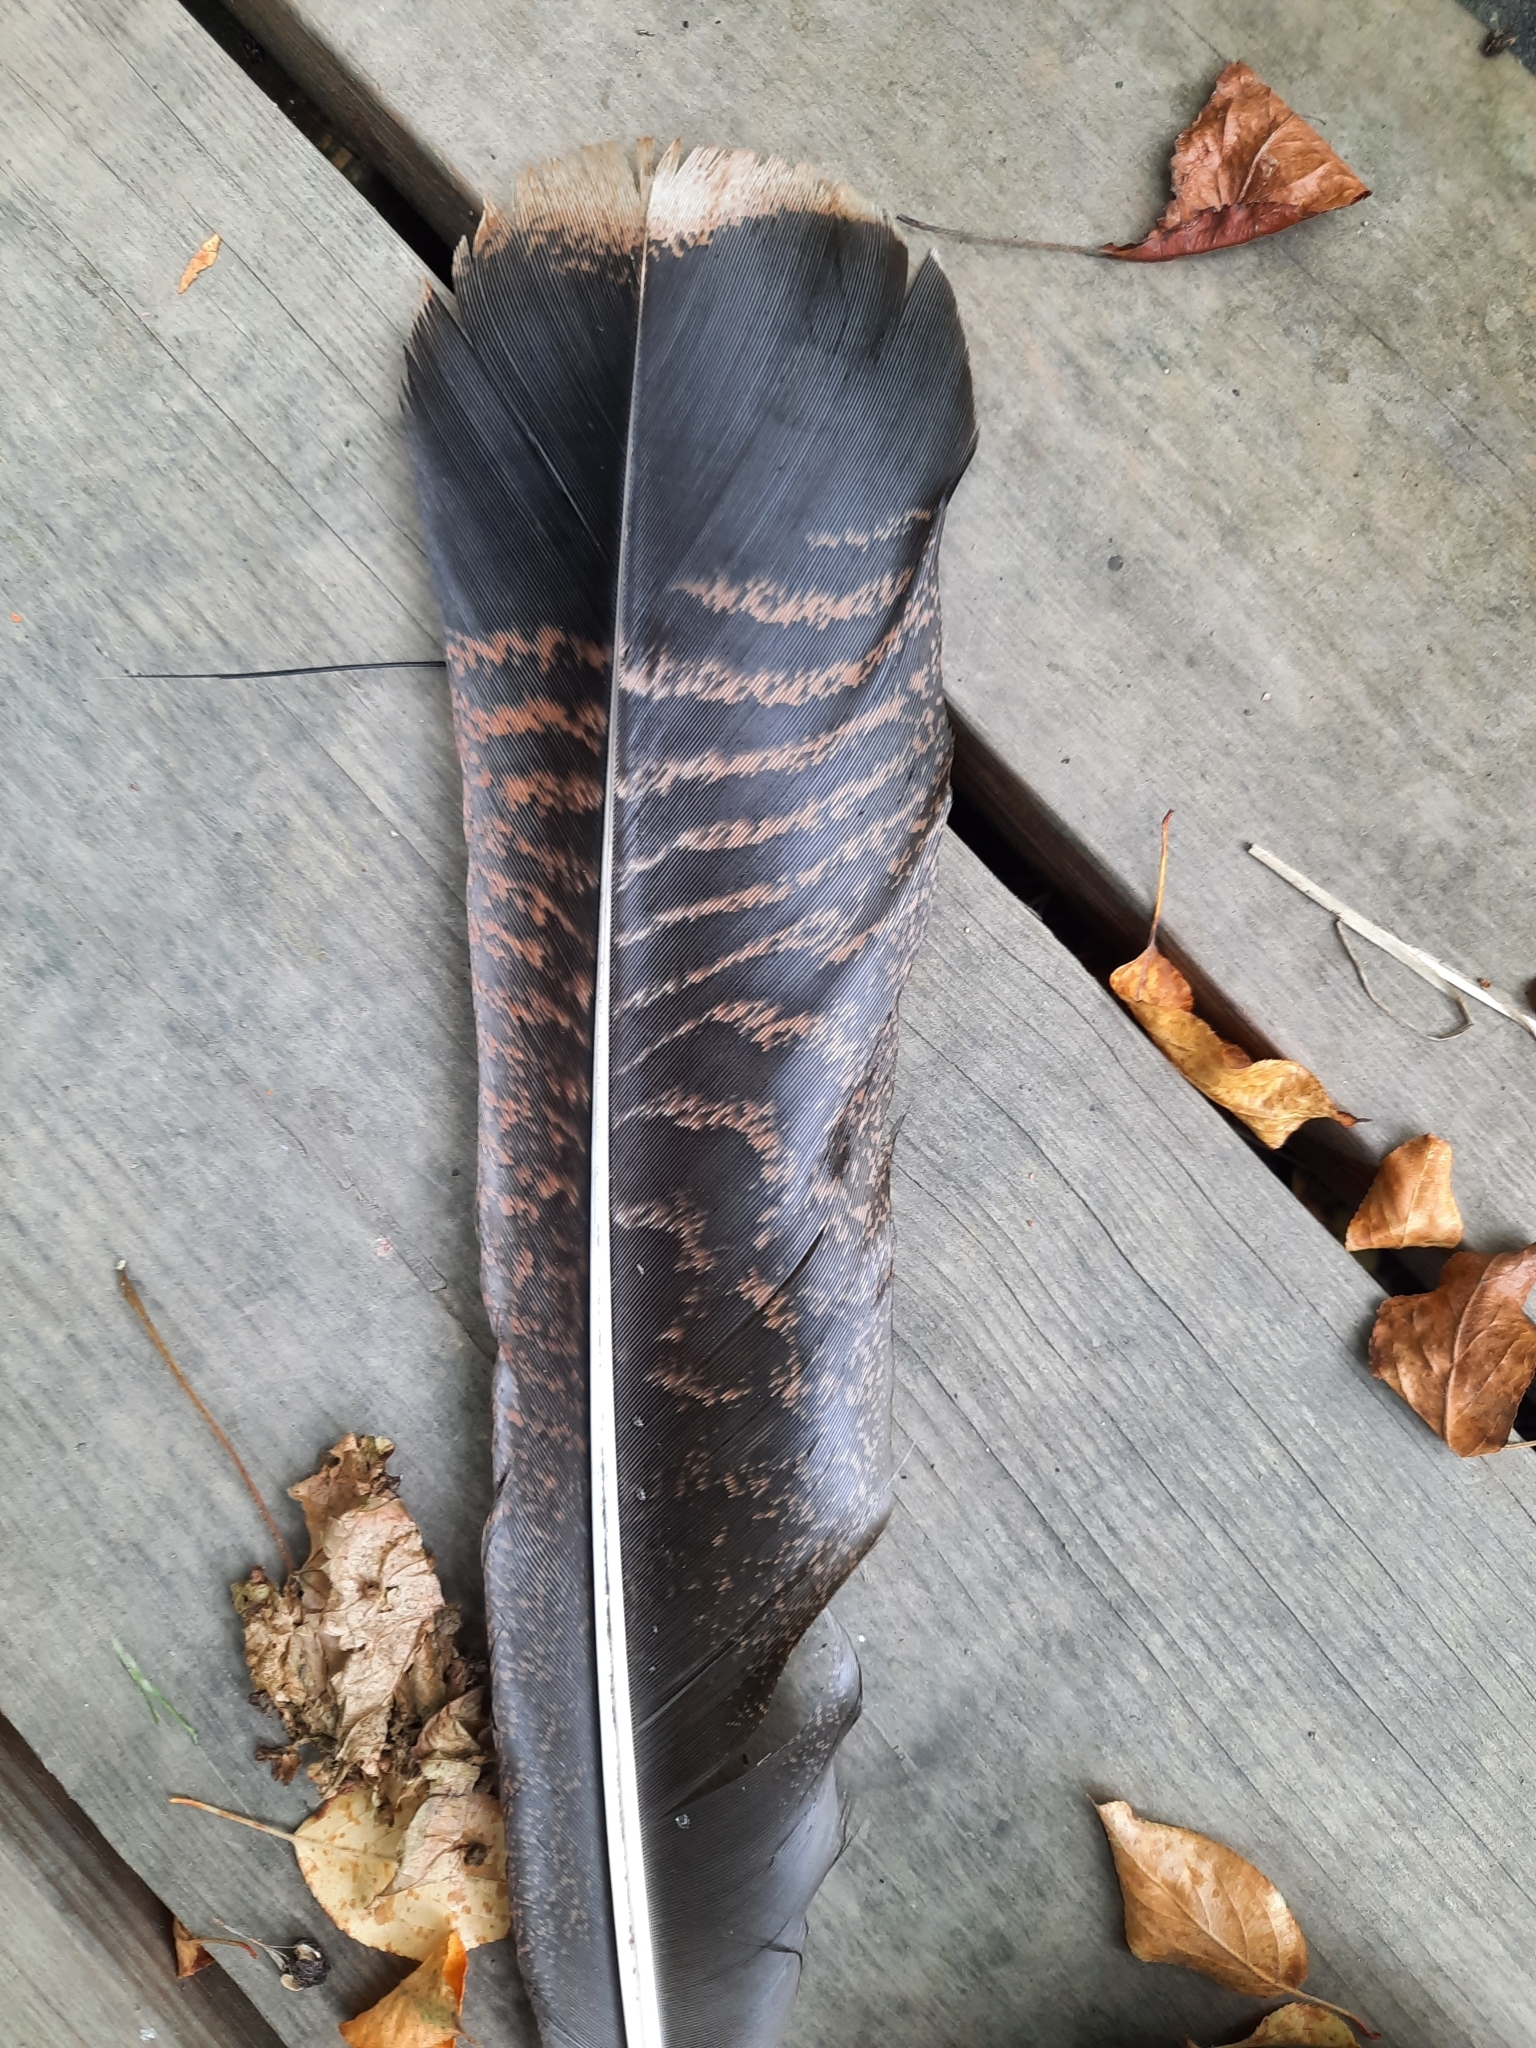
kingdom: Animalia
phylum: Chordata
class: Aves
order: Galliformes
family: Phasianidae
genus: Meleagris
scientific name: Meleagris gallopavo
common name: Wild turkey
